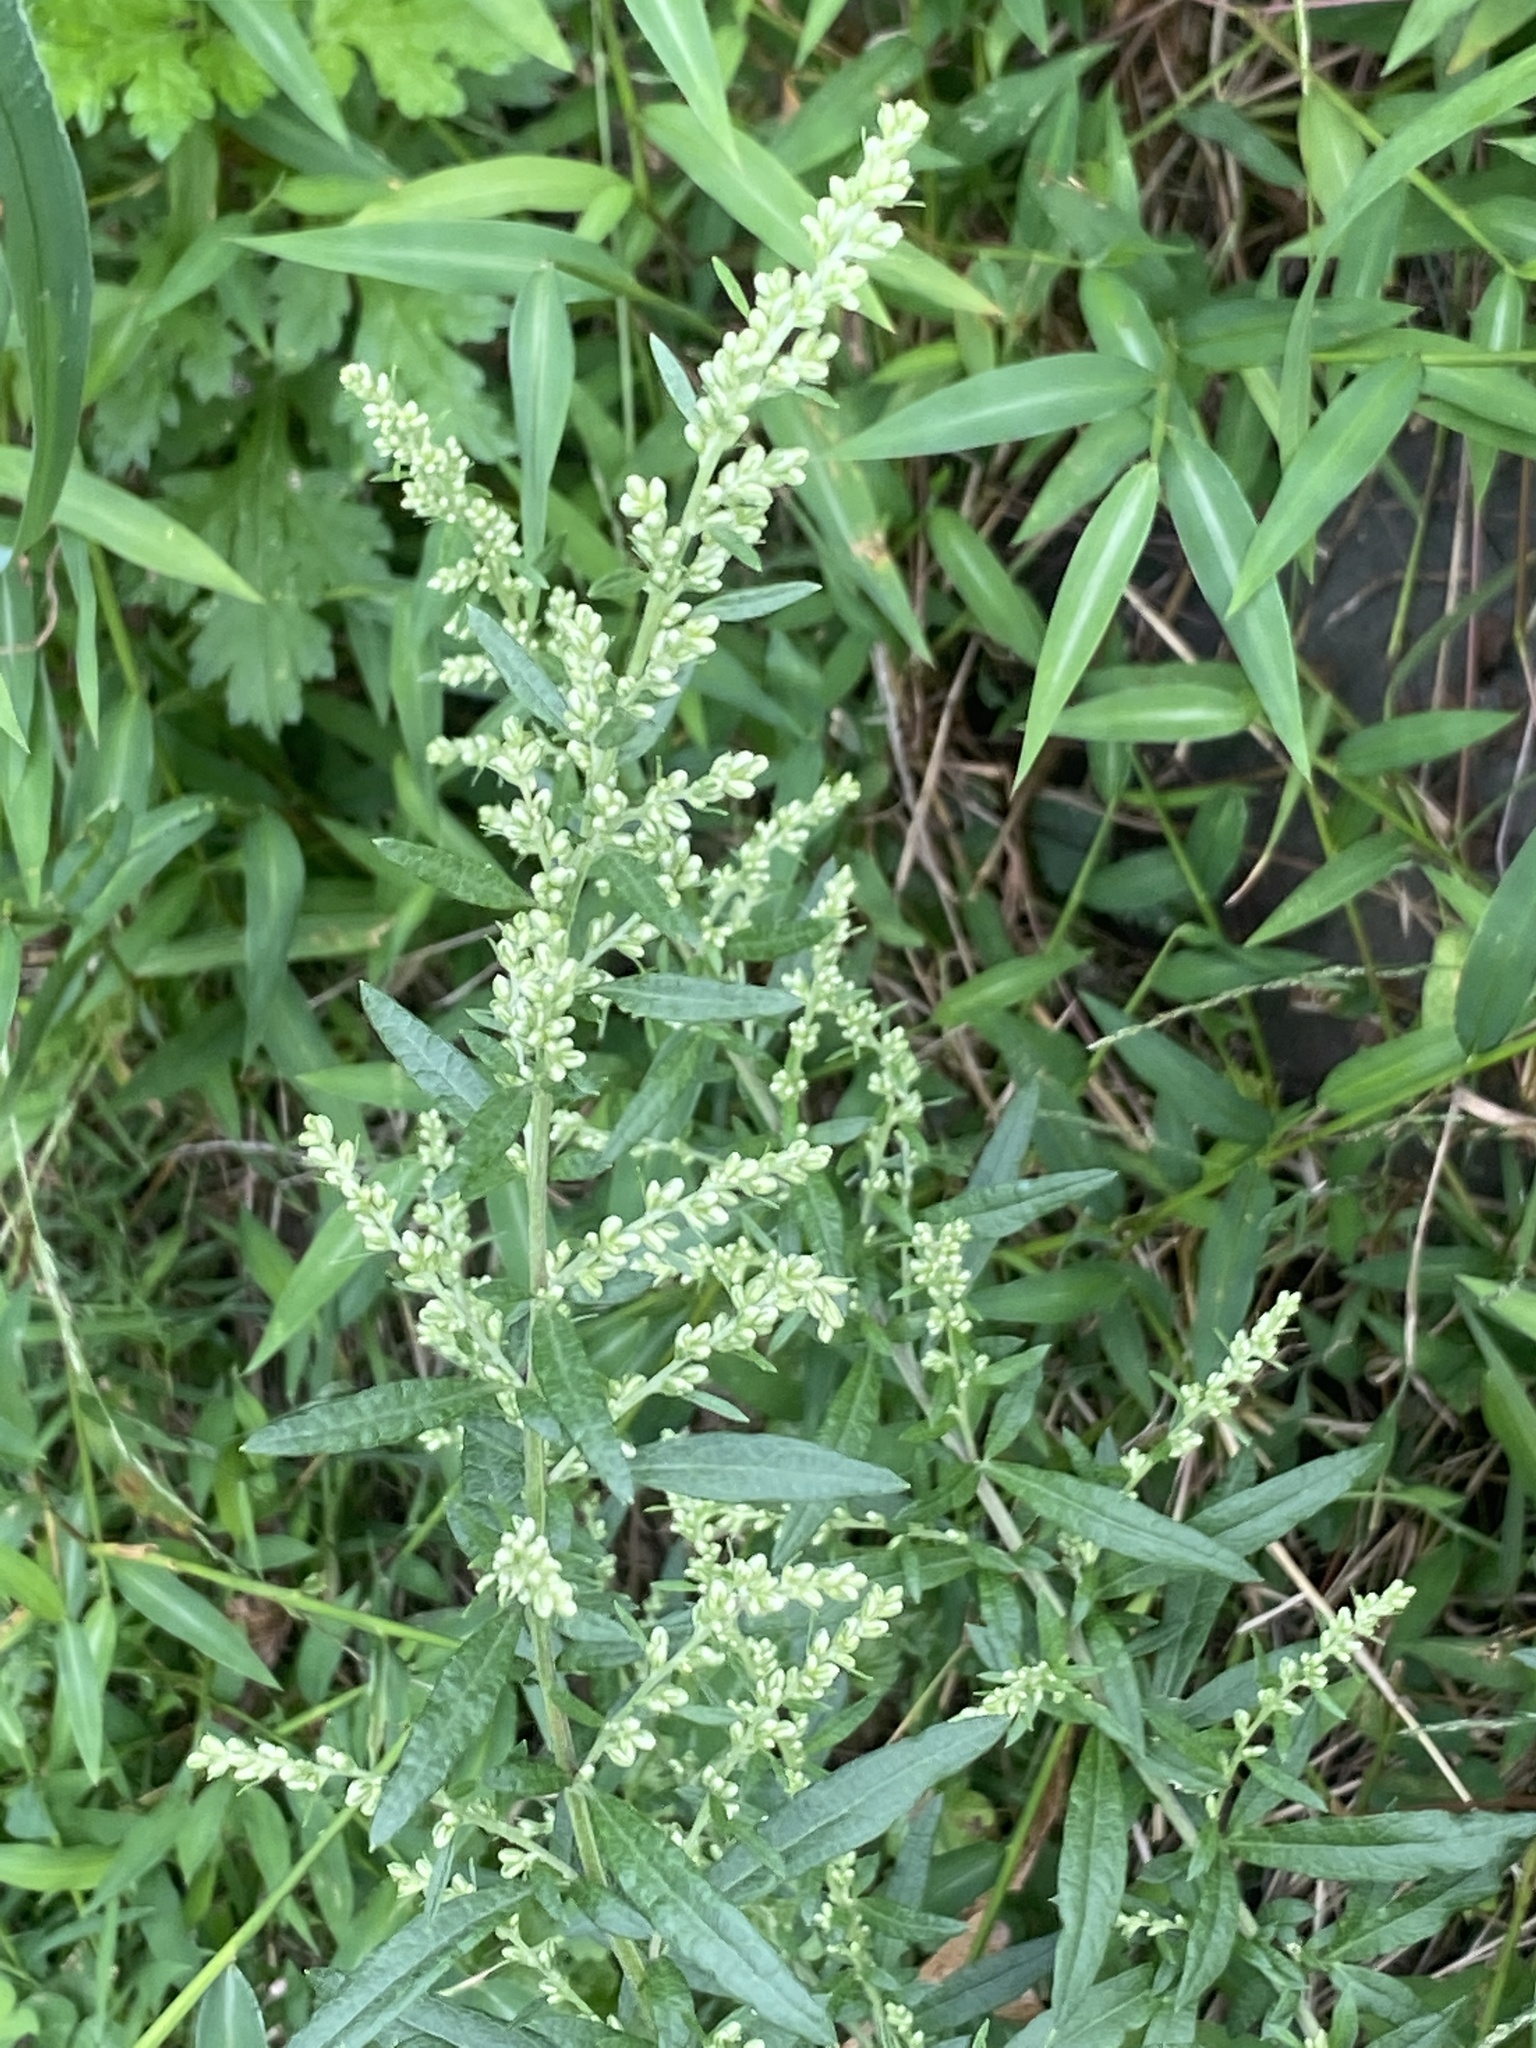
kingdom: Plantae
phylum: Tracheophyta
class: Magnoliopsida
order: Asterales
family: Asteraceae
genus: Artemisia
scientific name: Artemisia vulgaris
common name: Mugwort
